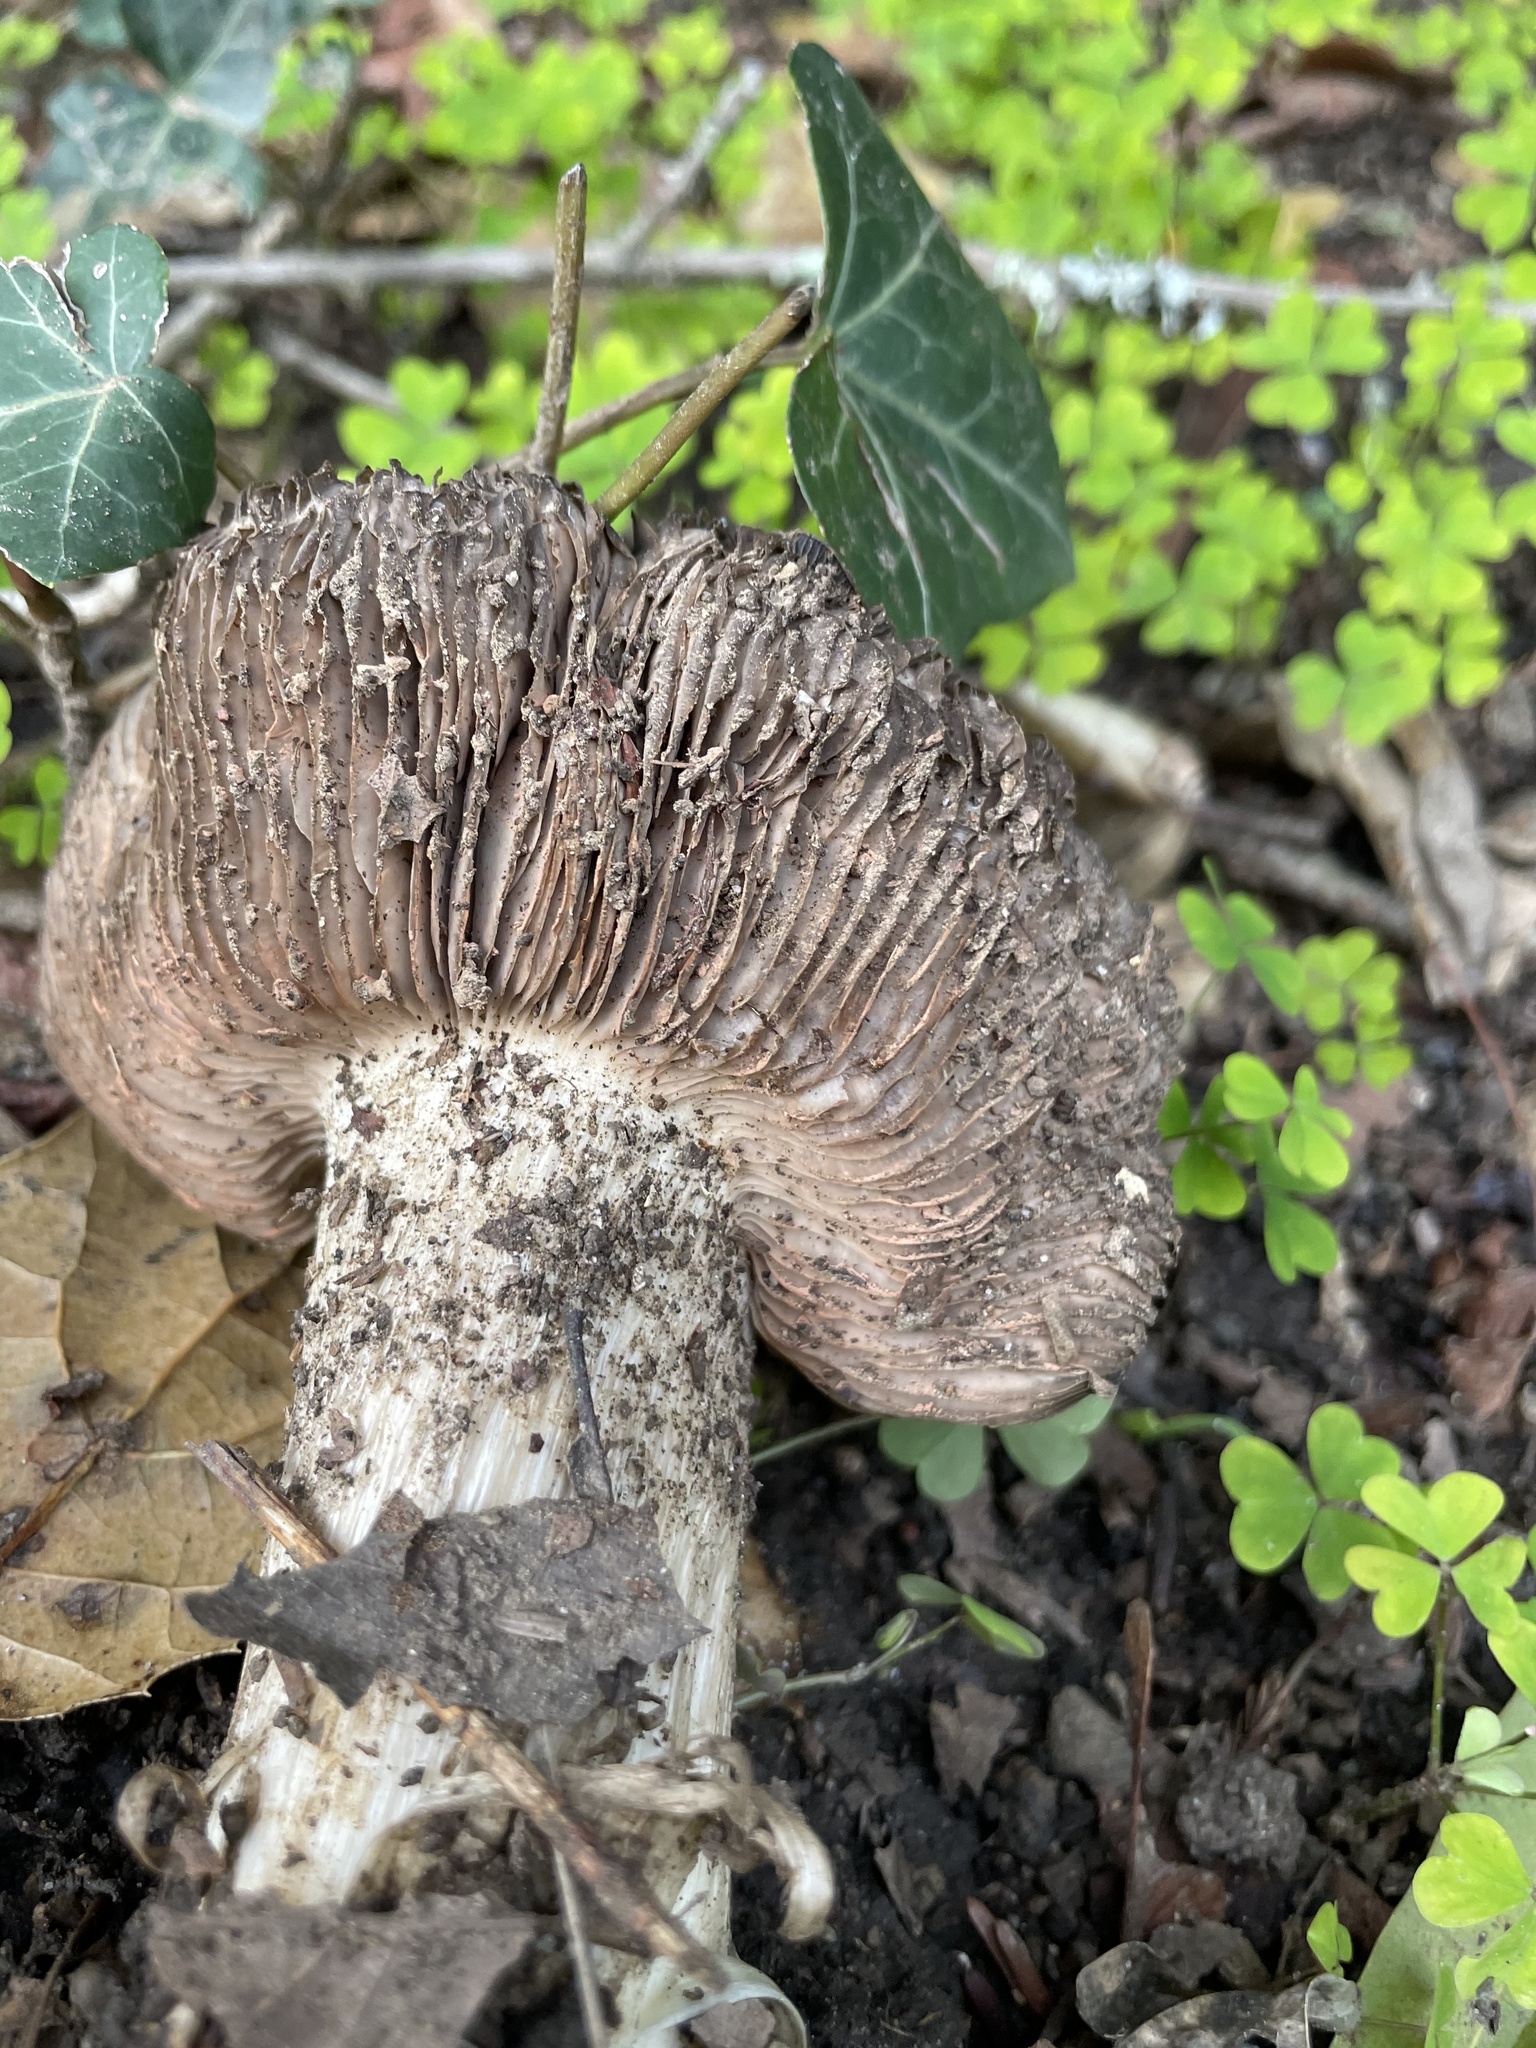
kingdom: Fungi
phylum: Basidiomycota
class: Agaricomycetes
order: Agaricales
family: Entolomataceae
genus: Entoloma
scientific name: Entoloma ferruginans
